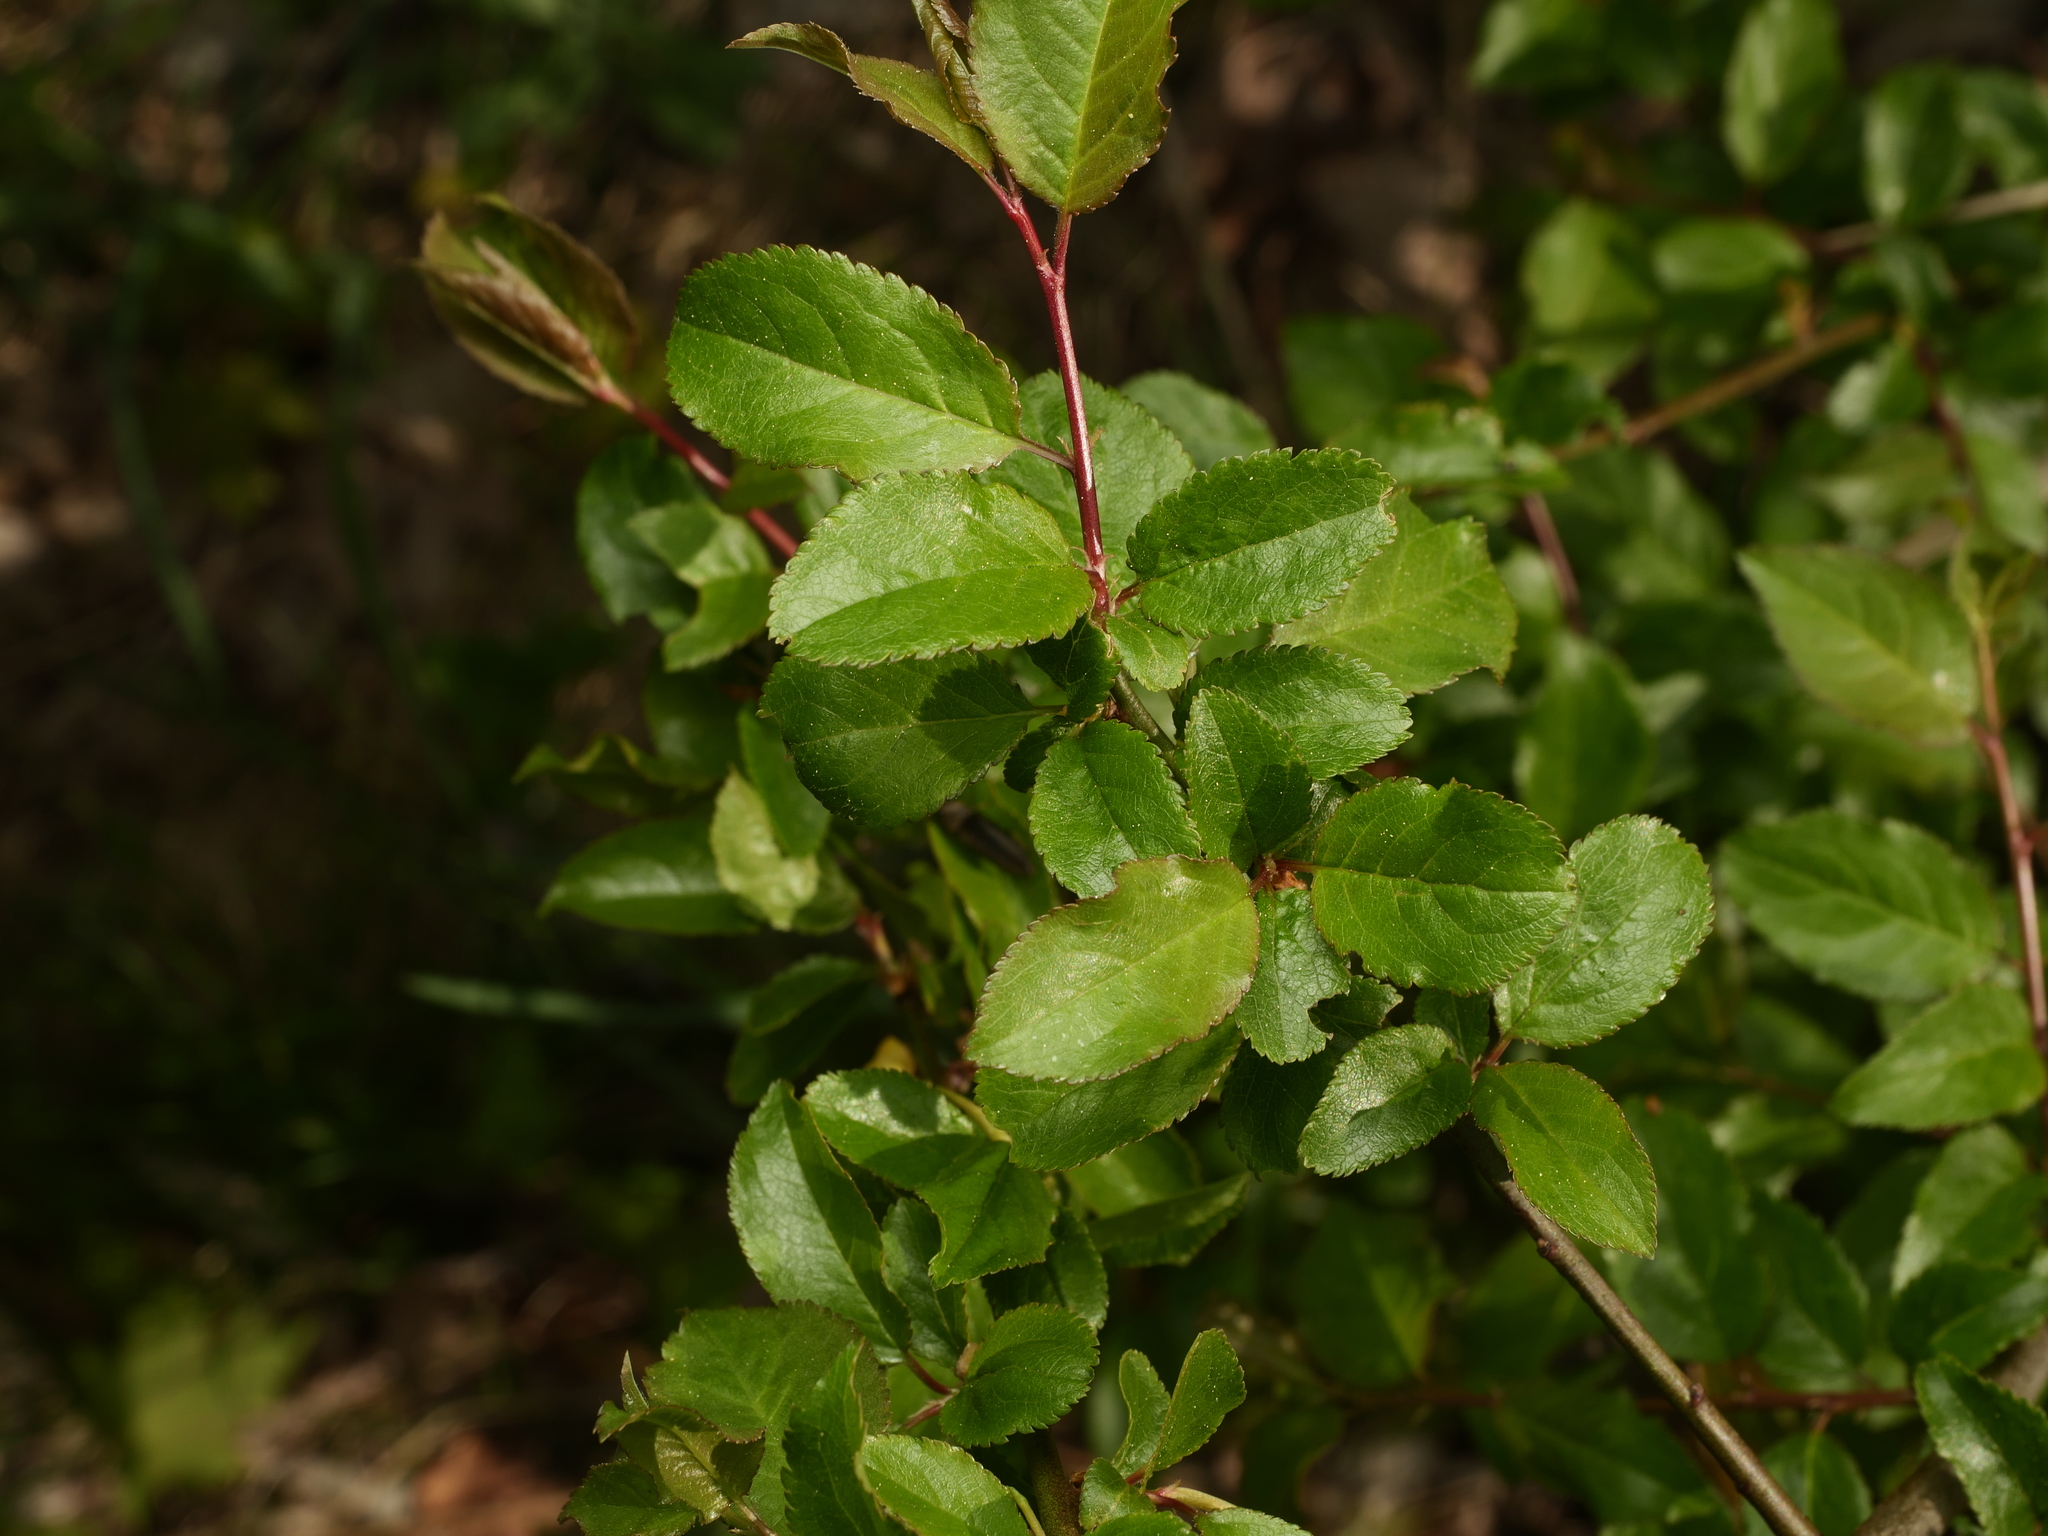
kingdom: Plantae
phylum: Tracheophyta
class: Magnoliopsida
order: Rosales
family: Rosaceae
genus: Prunus
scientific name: Prunus cerasifera
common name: Cherry plum
